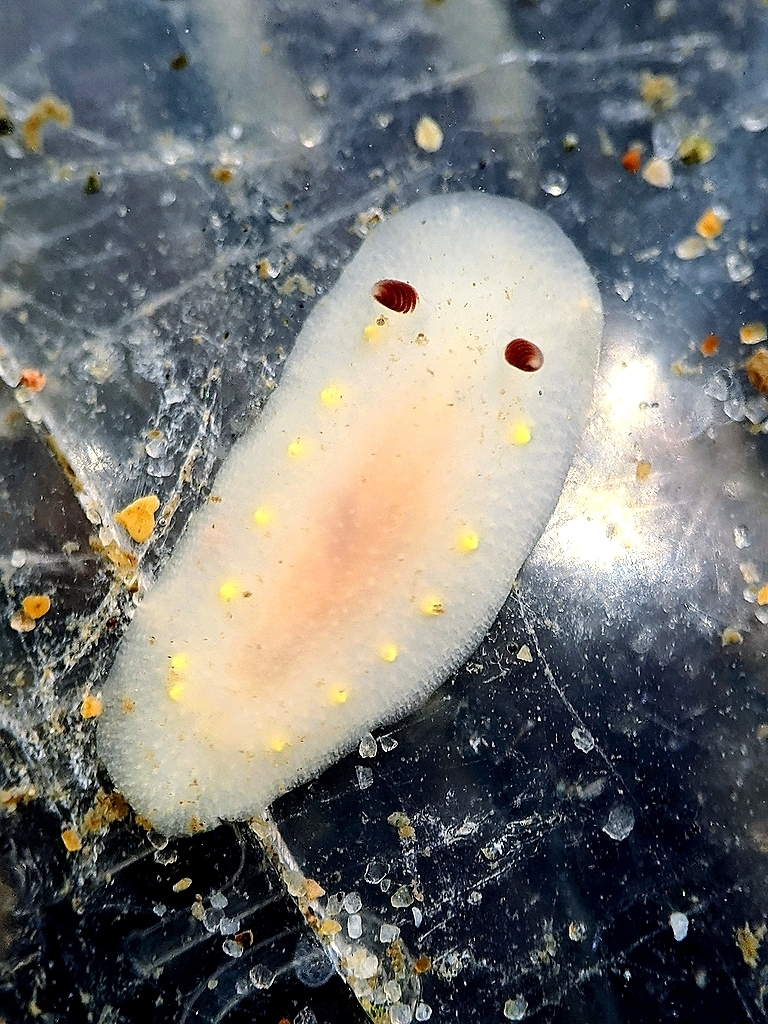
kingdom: Animalia
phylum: Mollusca
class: Gastropoda
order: Nudibranchia
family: Cadlinidae
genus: Cadlina
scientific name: Cadlina flavomaculata
